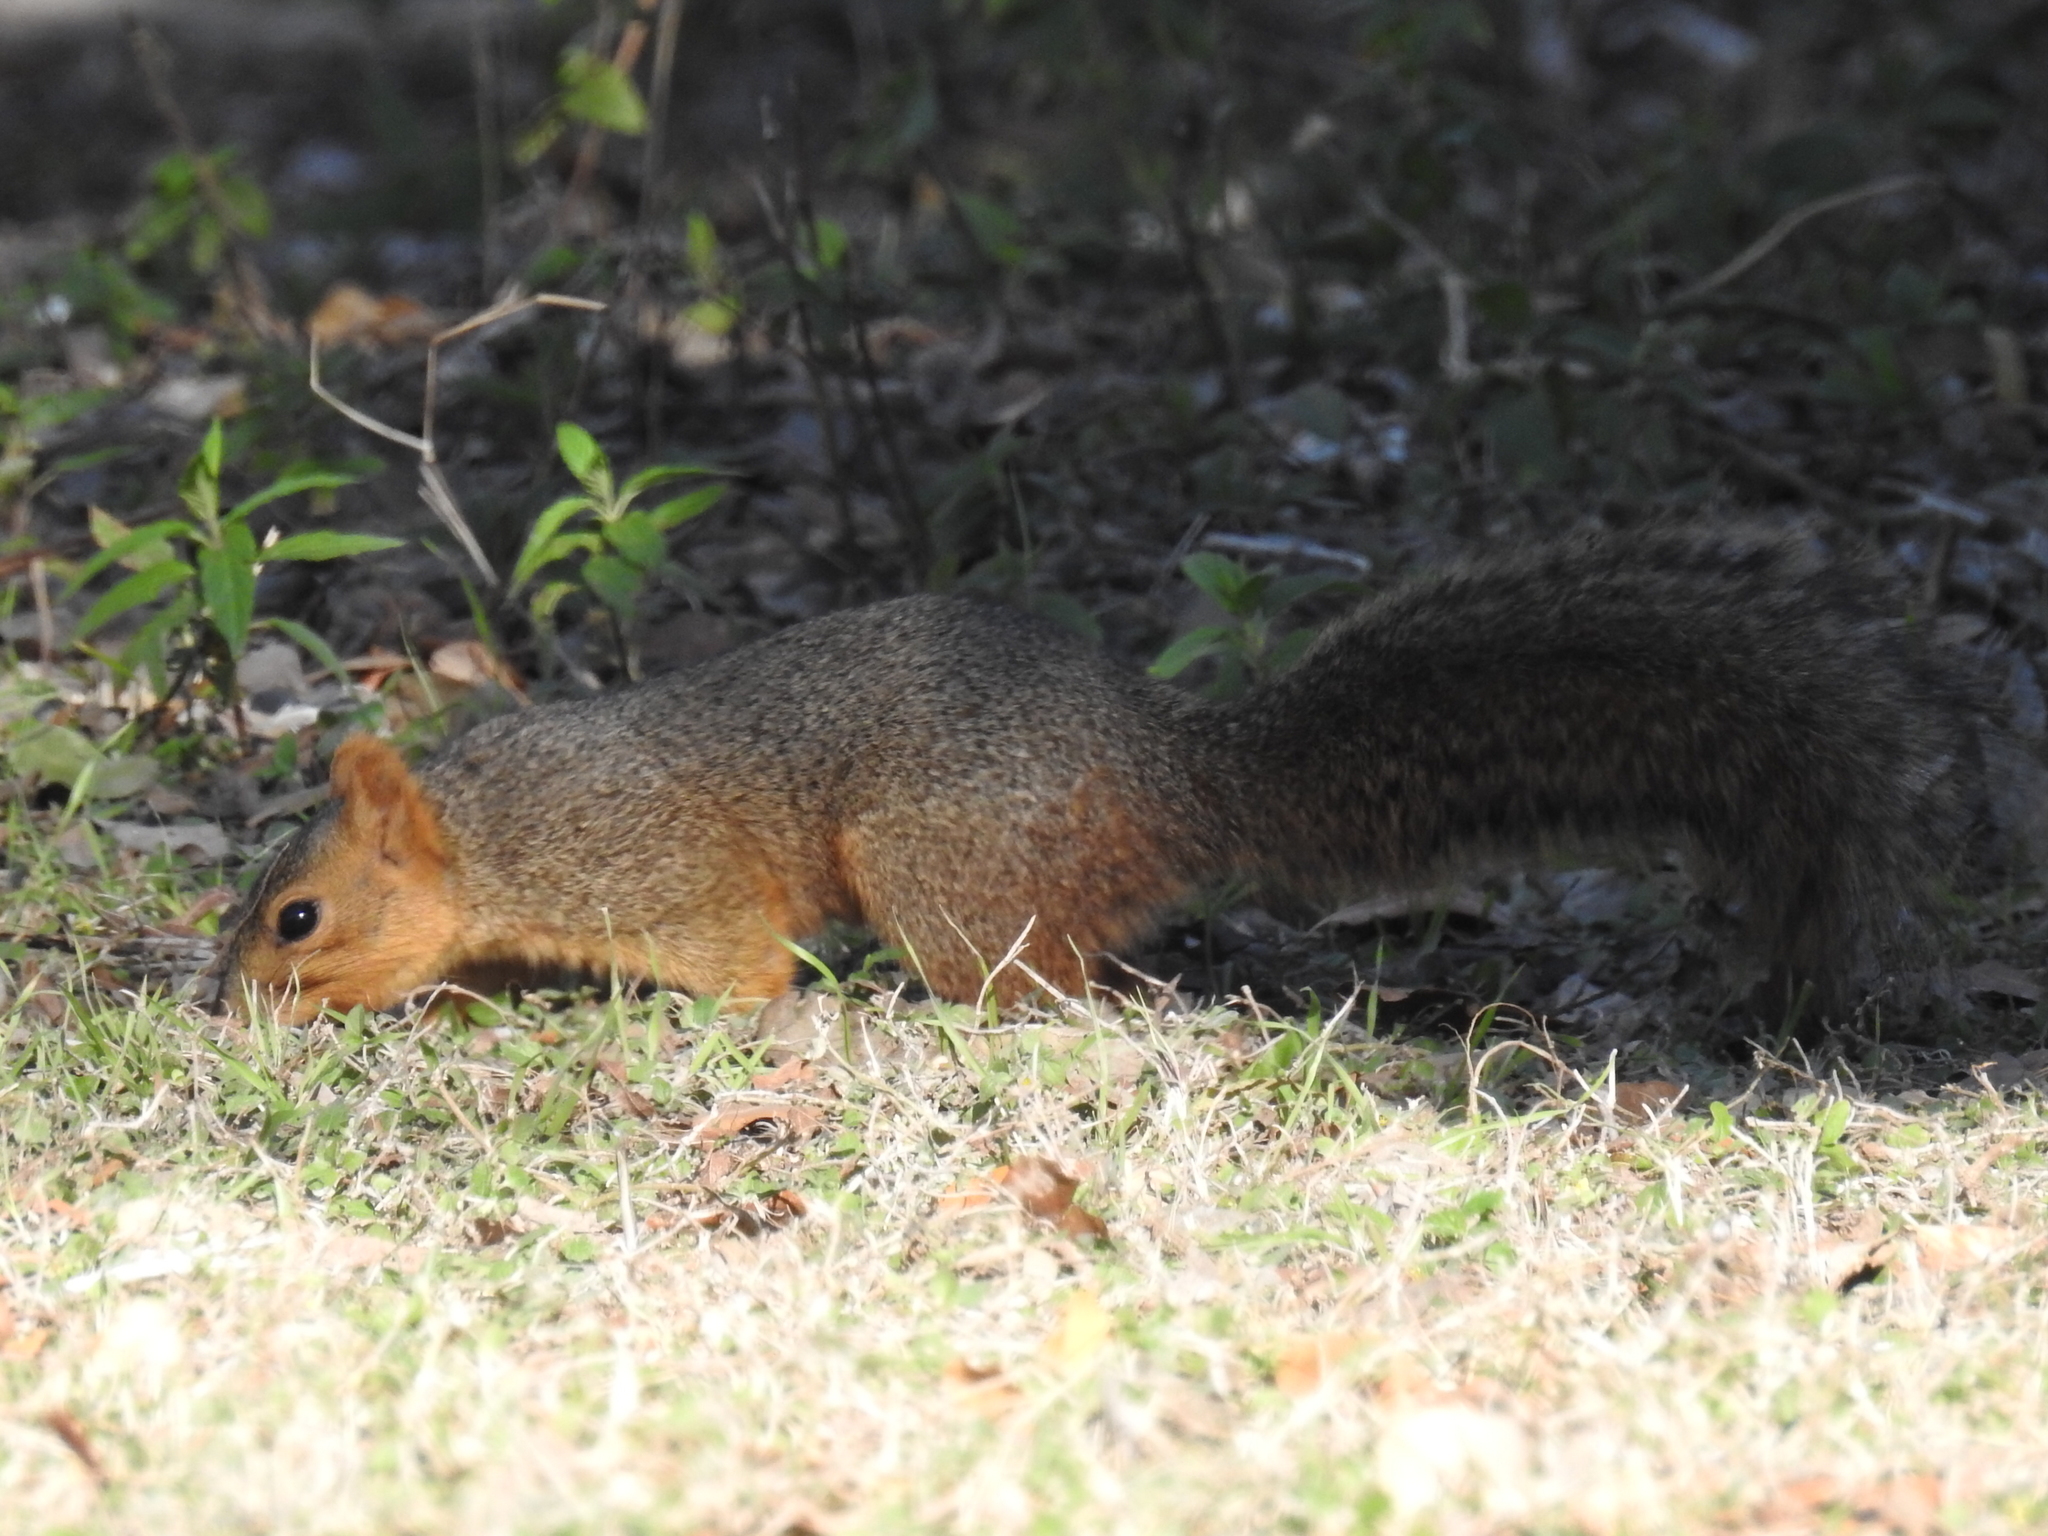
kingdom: Animalia
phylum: Chordata
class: Mammalia
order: Rodentia
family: Sciuridae
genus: Sciurus
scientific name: Sciurus niger
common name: Fox squirrel
